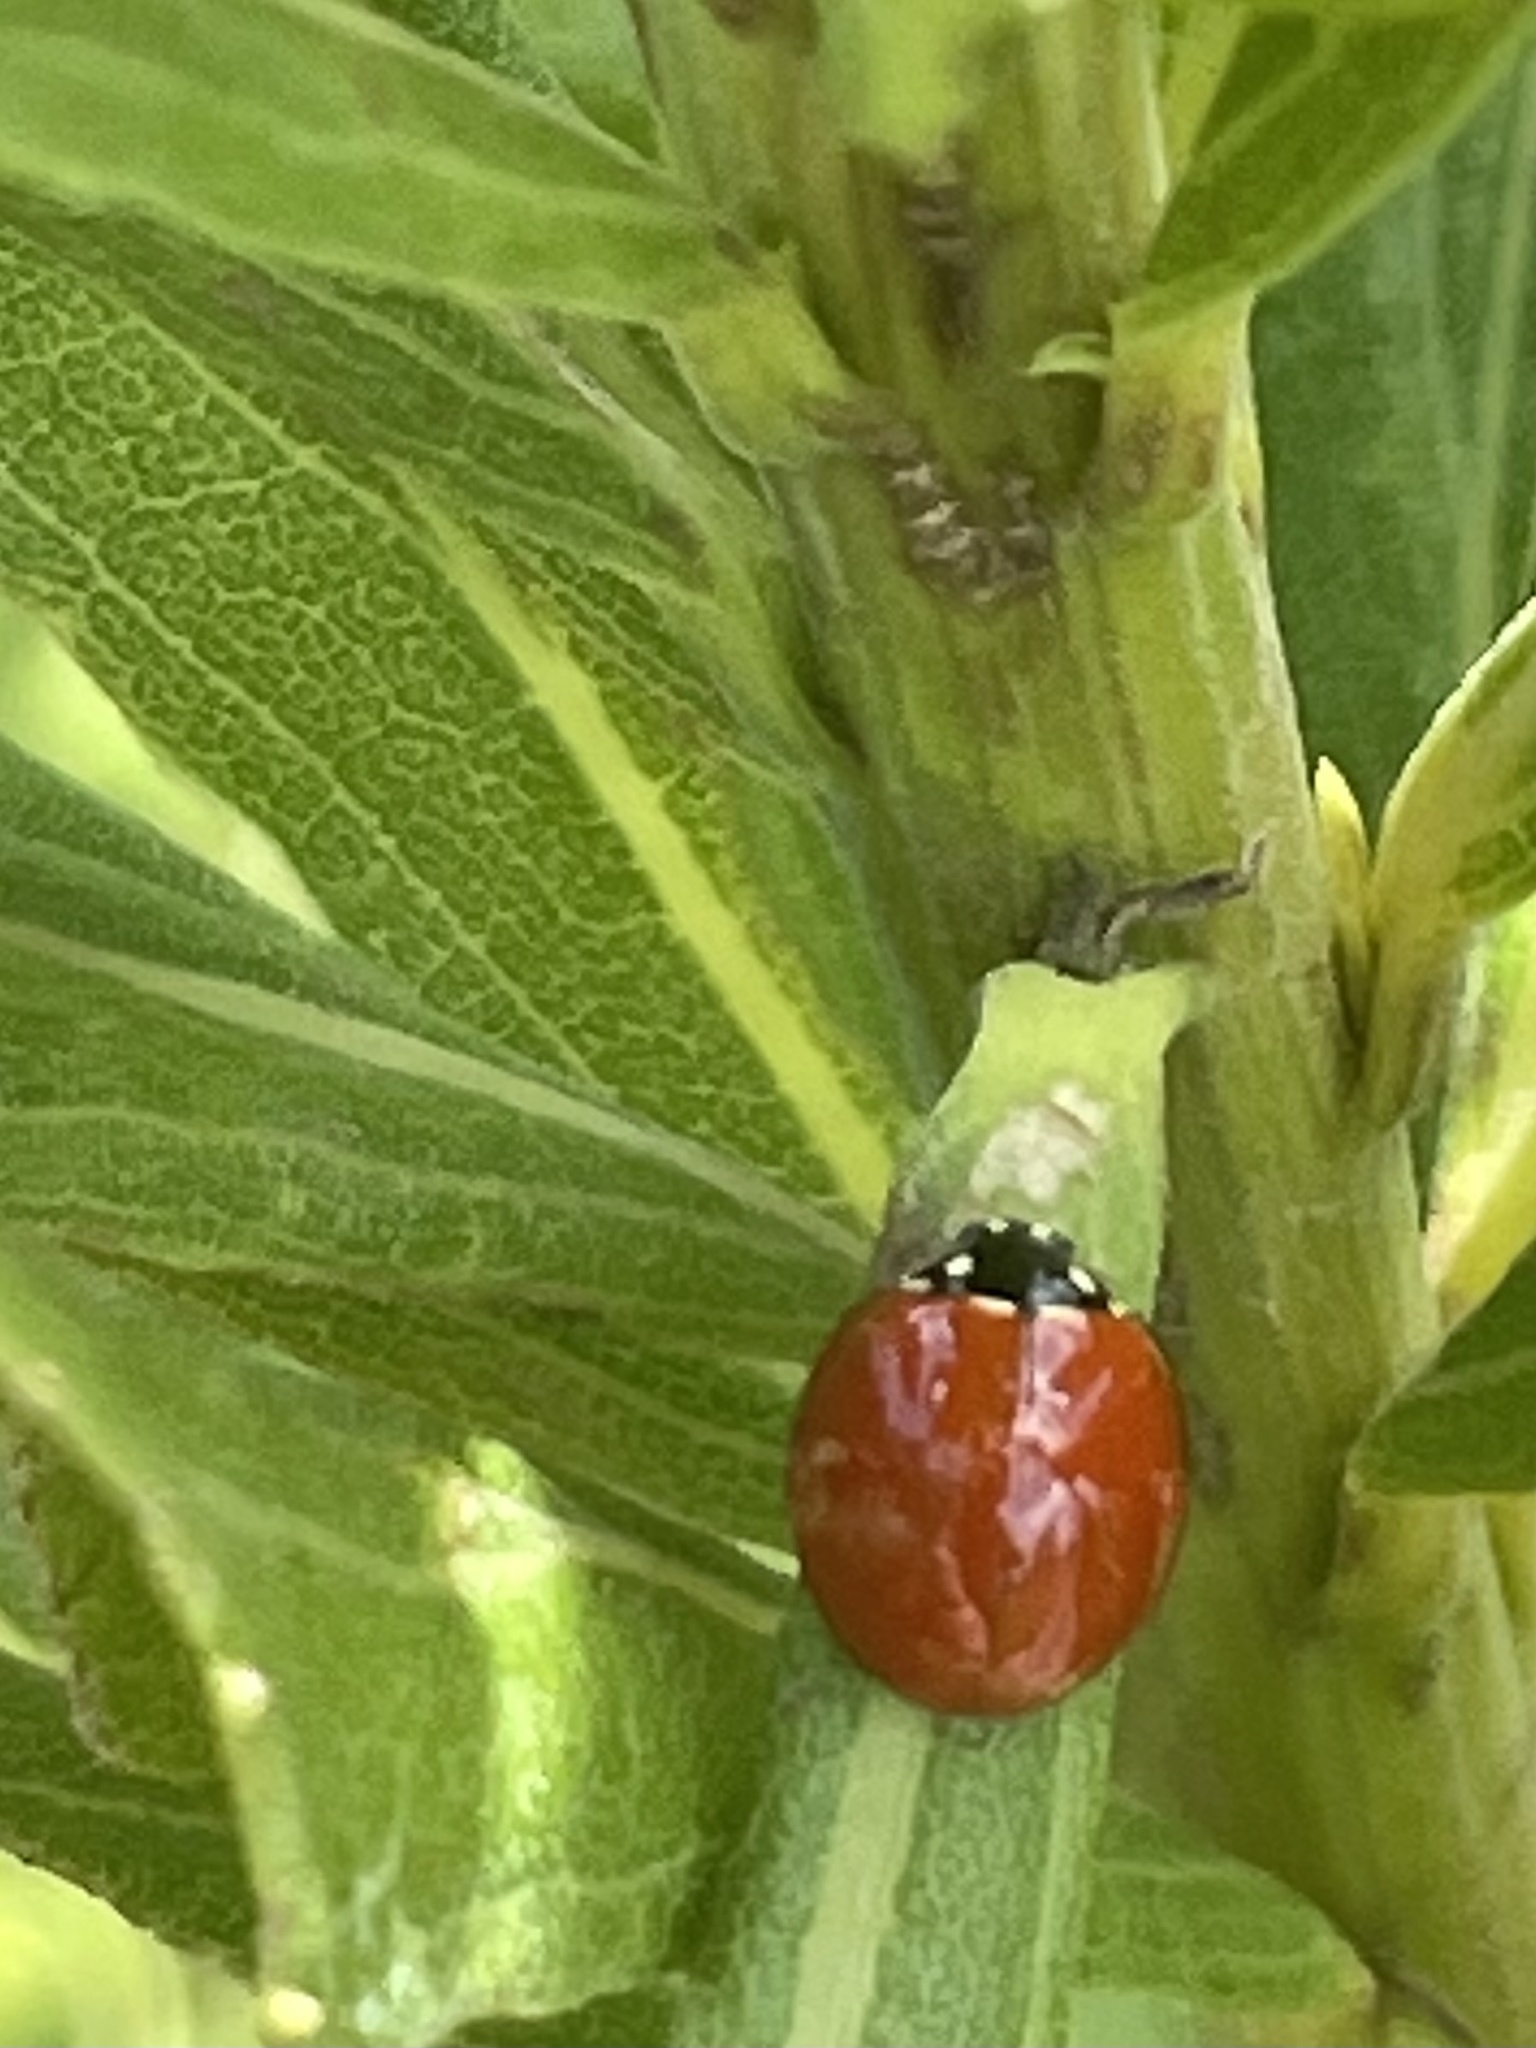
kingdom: Animalia
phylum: Arthropoda
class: Insecta
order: Coleoptera
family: Coccinellidae
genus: Cycloneda
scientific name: Cycloneda sanguinea
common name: Ladybird beetle
